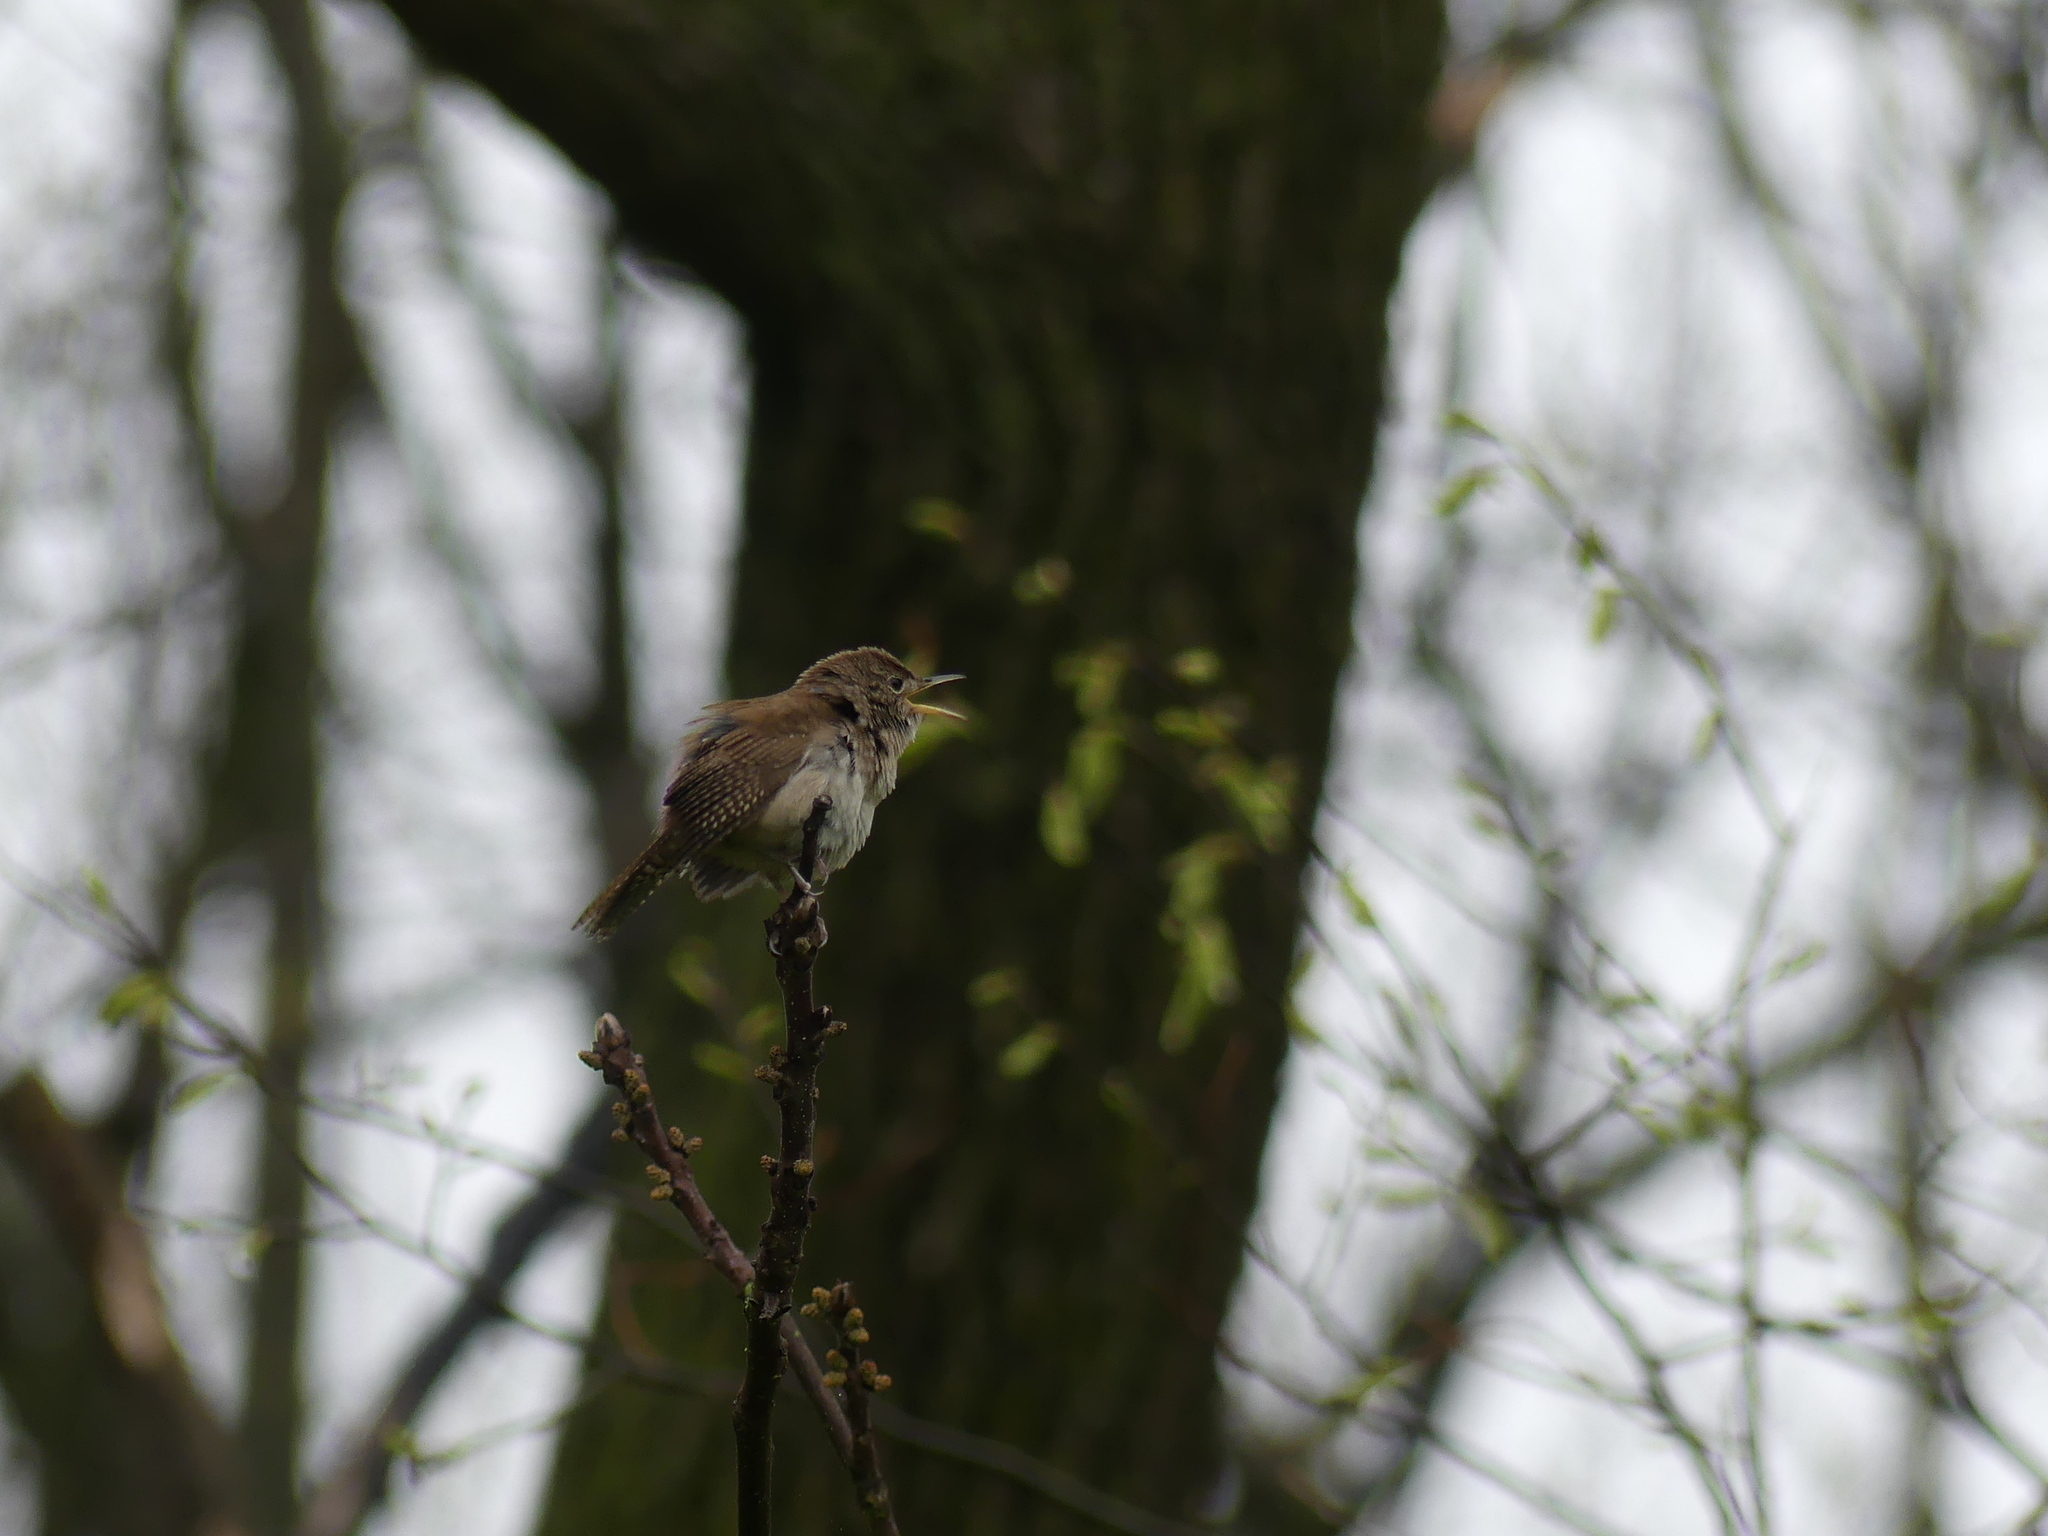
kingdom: Animalia
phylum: Chordata
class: Aves
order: Passeriformes
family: Troglodytidae
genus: Troglodytes
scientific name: Troglodytes aedon
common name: House wren
